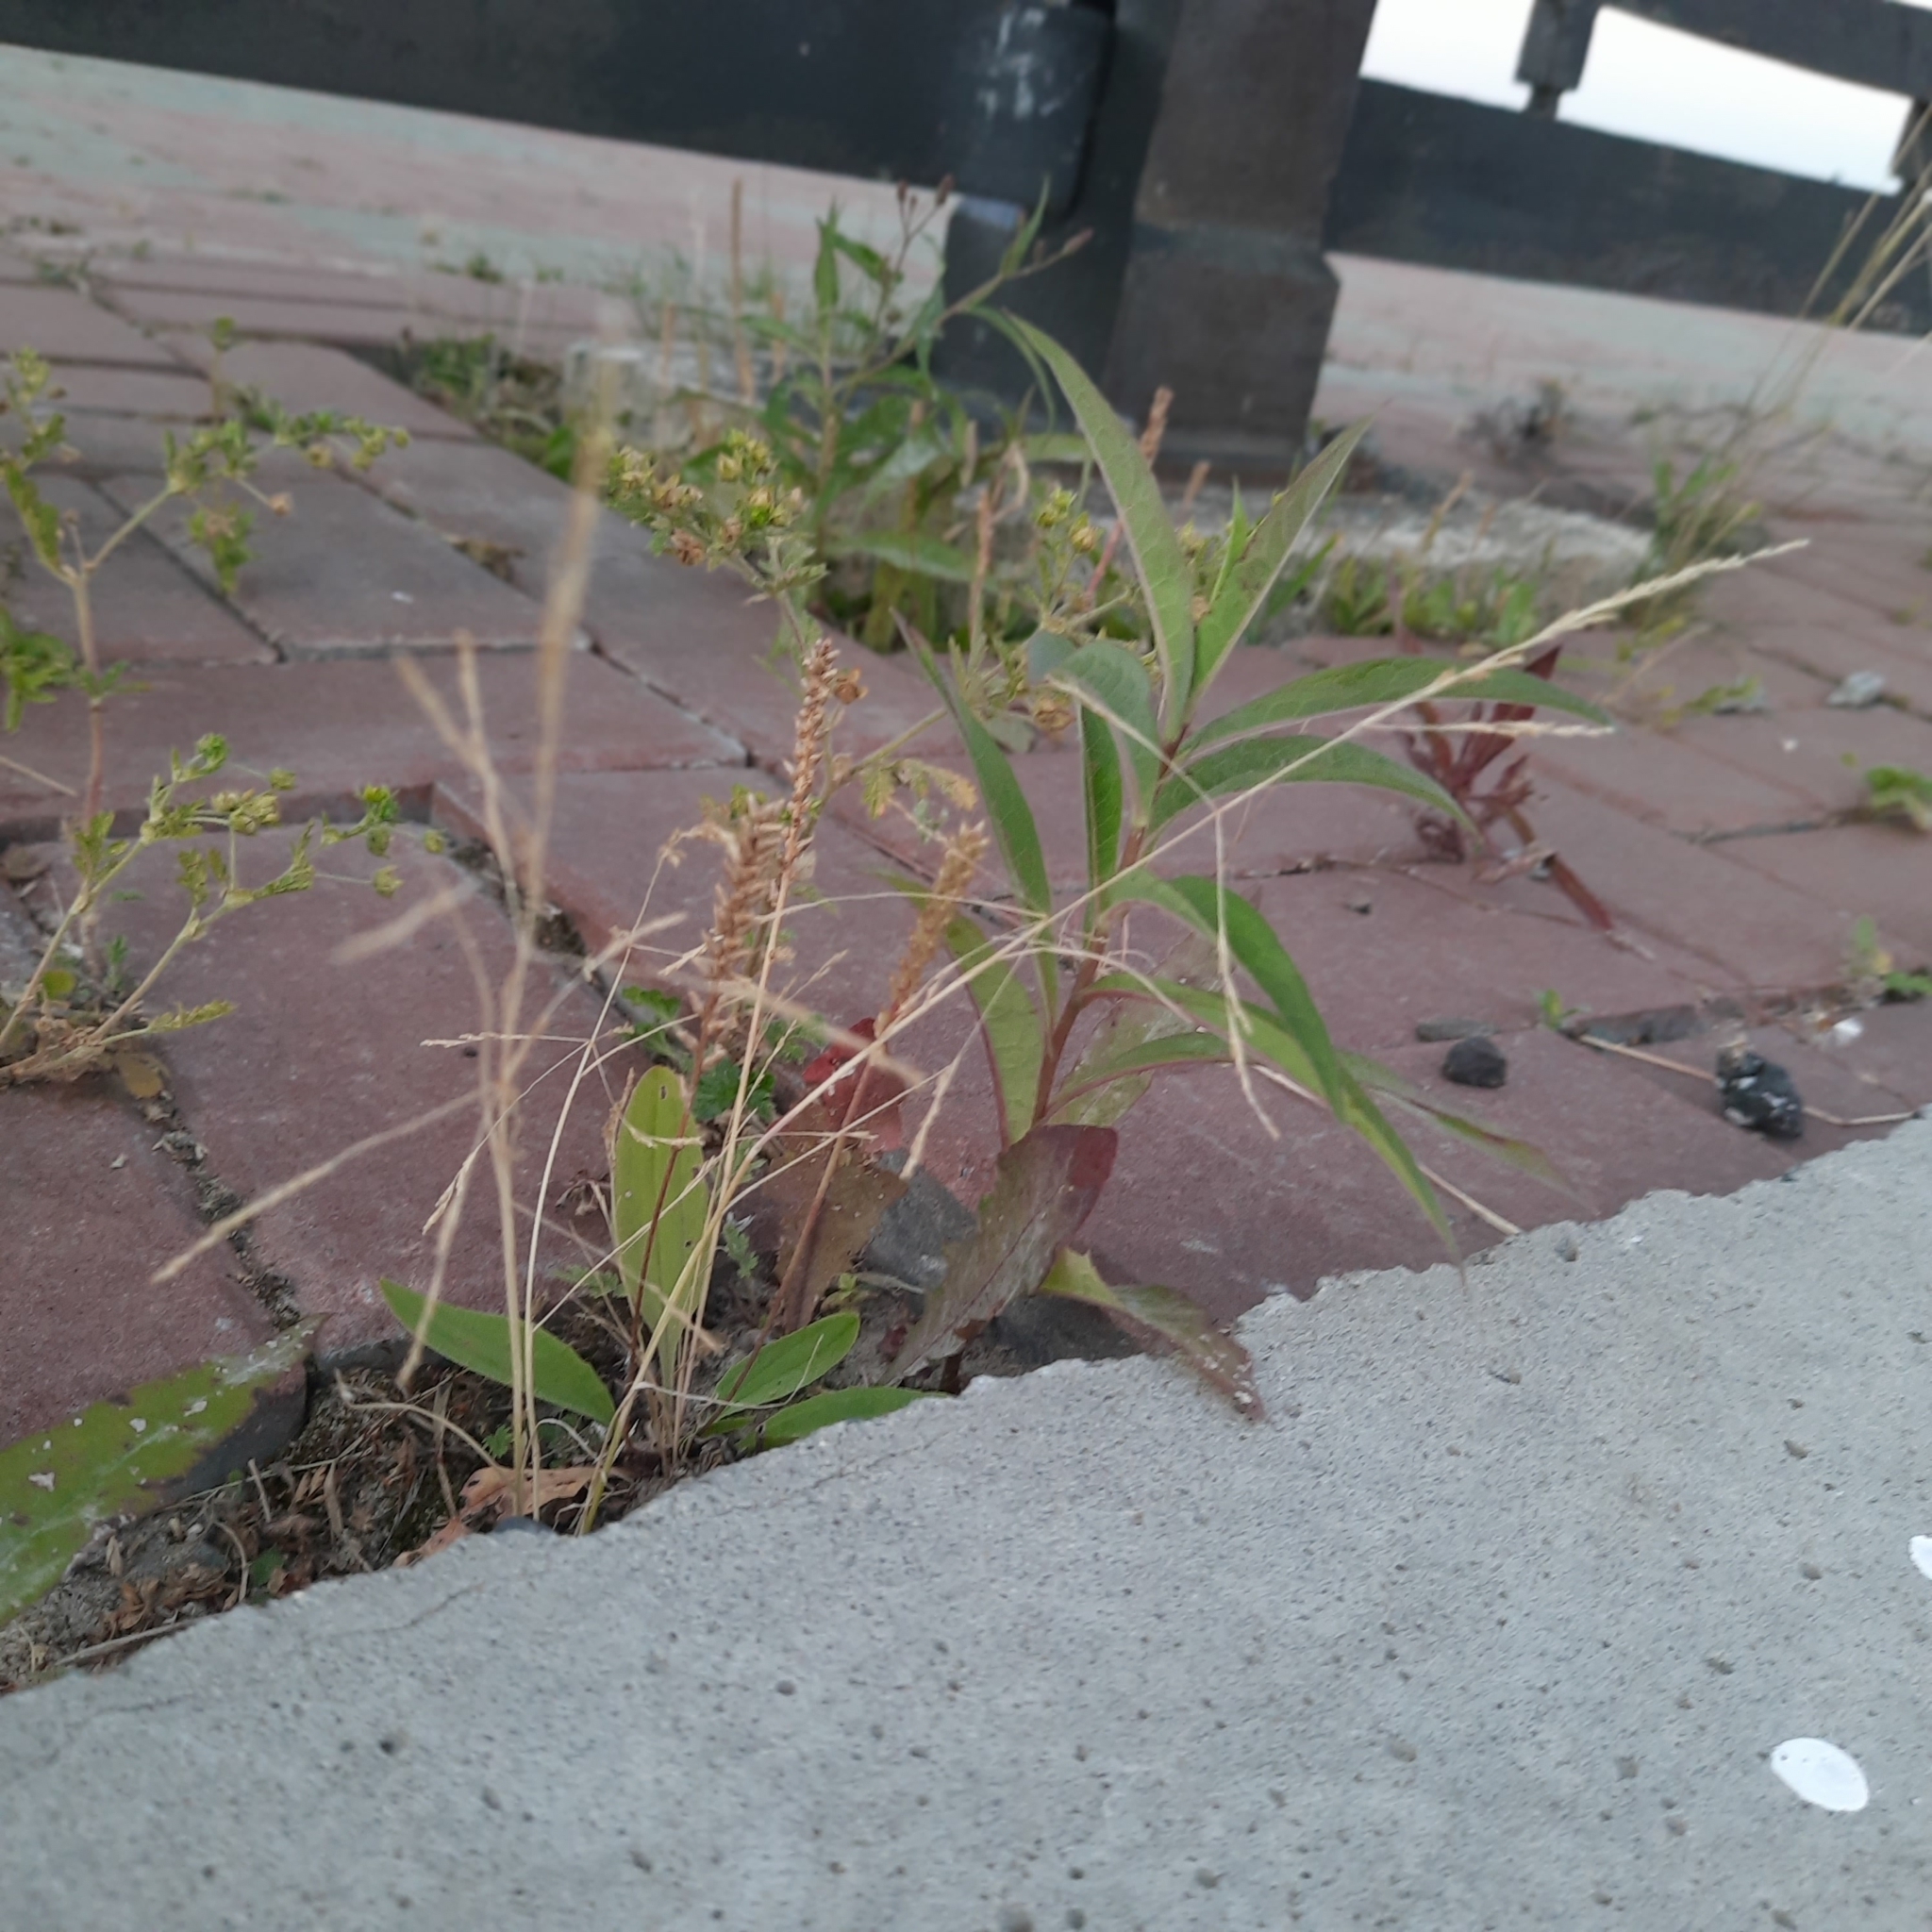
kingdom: Plantae
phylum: Tracheophyta
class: Liliopsida
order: Poales
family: Poaceae
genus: Puccinellia
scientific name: Puccinellia hauptiana
